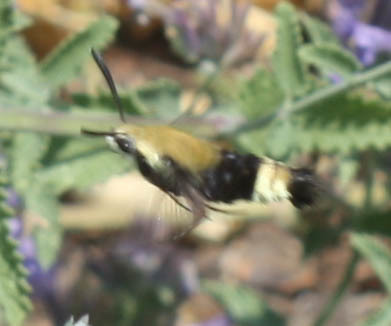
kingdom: Animalia
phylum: Arthropoda
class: Insecta
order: Lepidoptera
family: Sphingidae
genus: Hemaris
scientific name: Hemaris thetis
